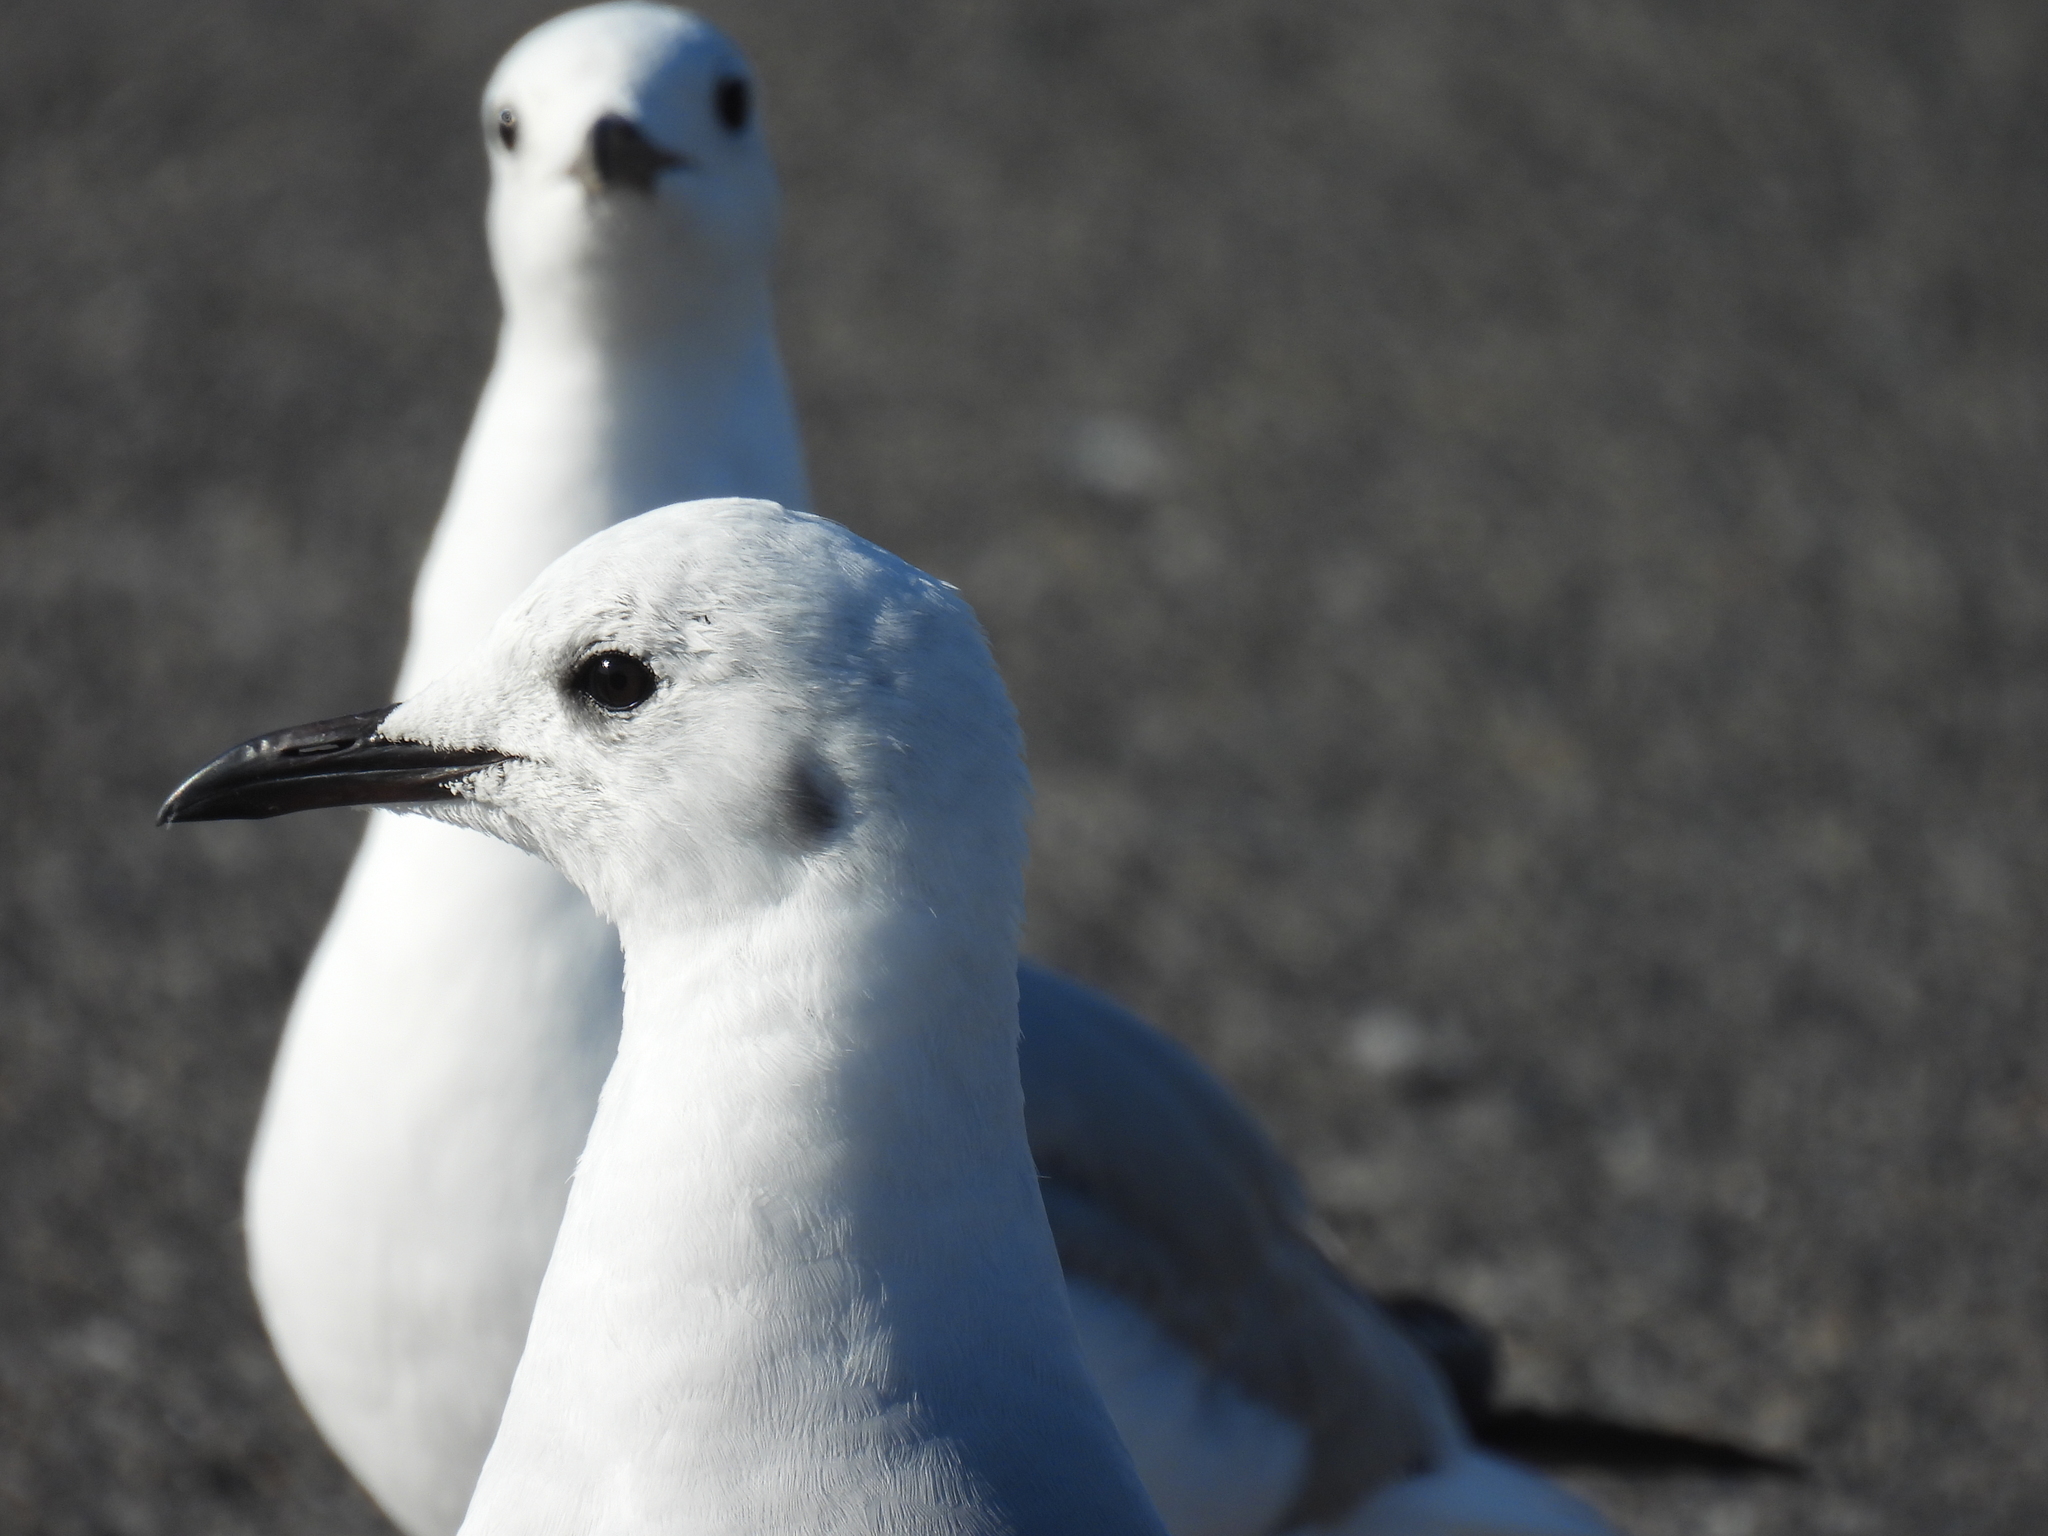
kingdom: Animalia
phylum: Chordata
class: Aves
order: Charadriiformes
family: Laridae
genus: Chroicocephalus
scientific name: Chroicocephalus hartlaubii
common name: Hartlaub's gull
